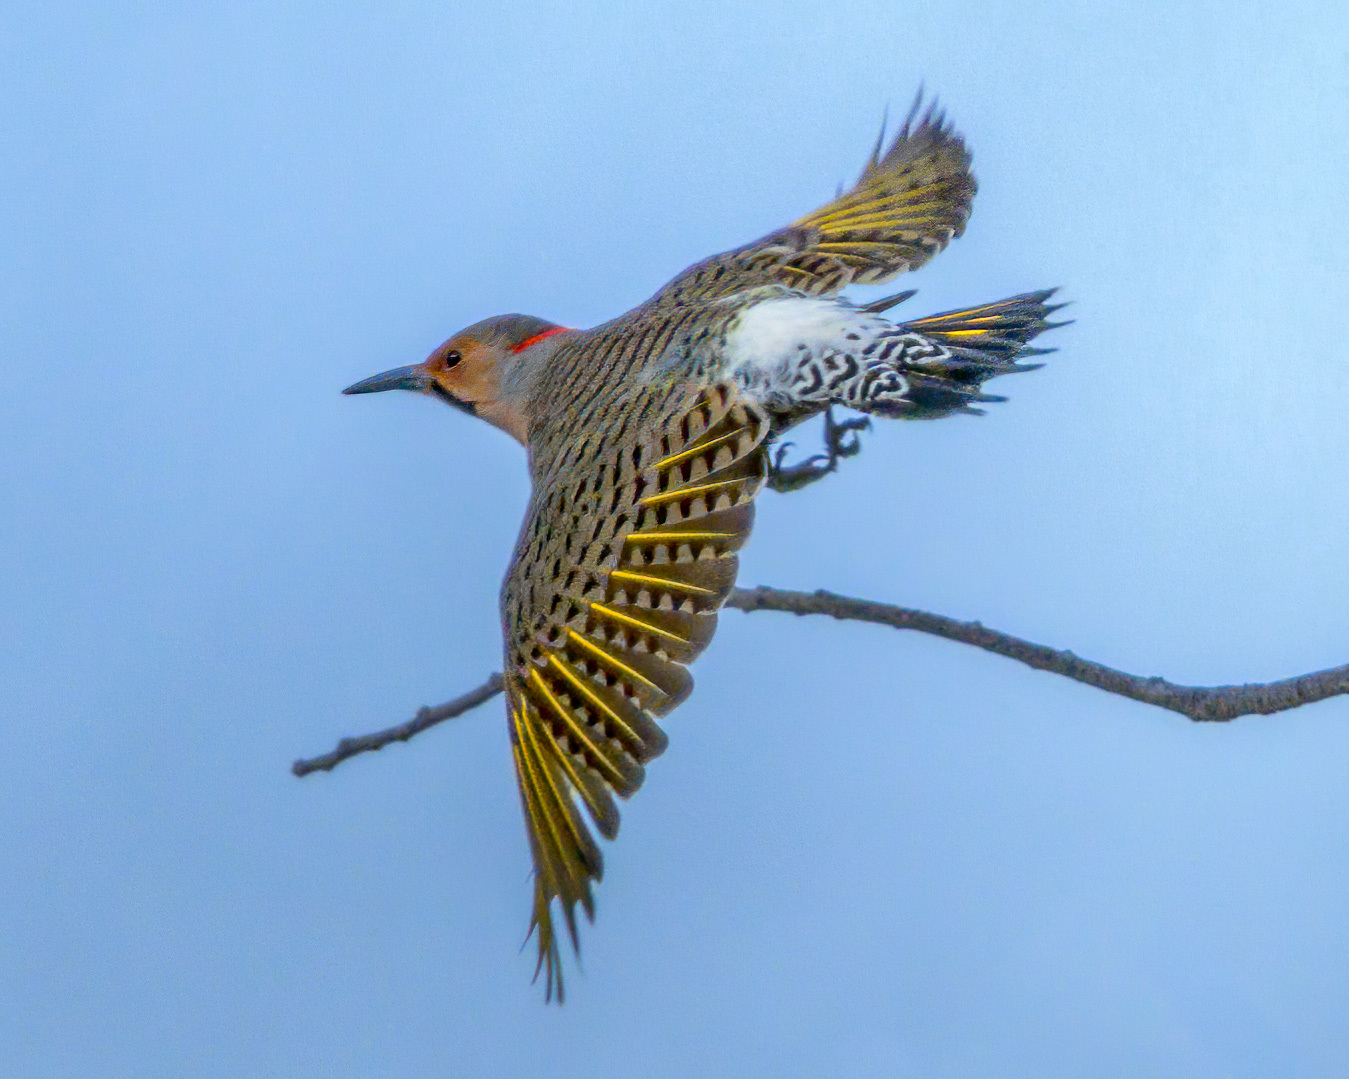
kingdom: Animalia
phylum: Chordata
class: Aves
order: Piciformes
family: Picidae
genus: Colaptes
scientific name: Colaptes auratus
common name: Northern flicker
